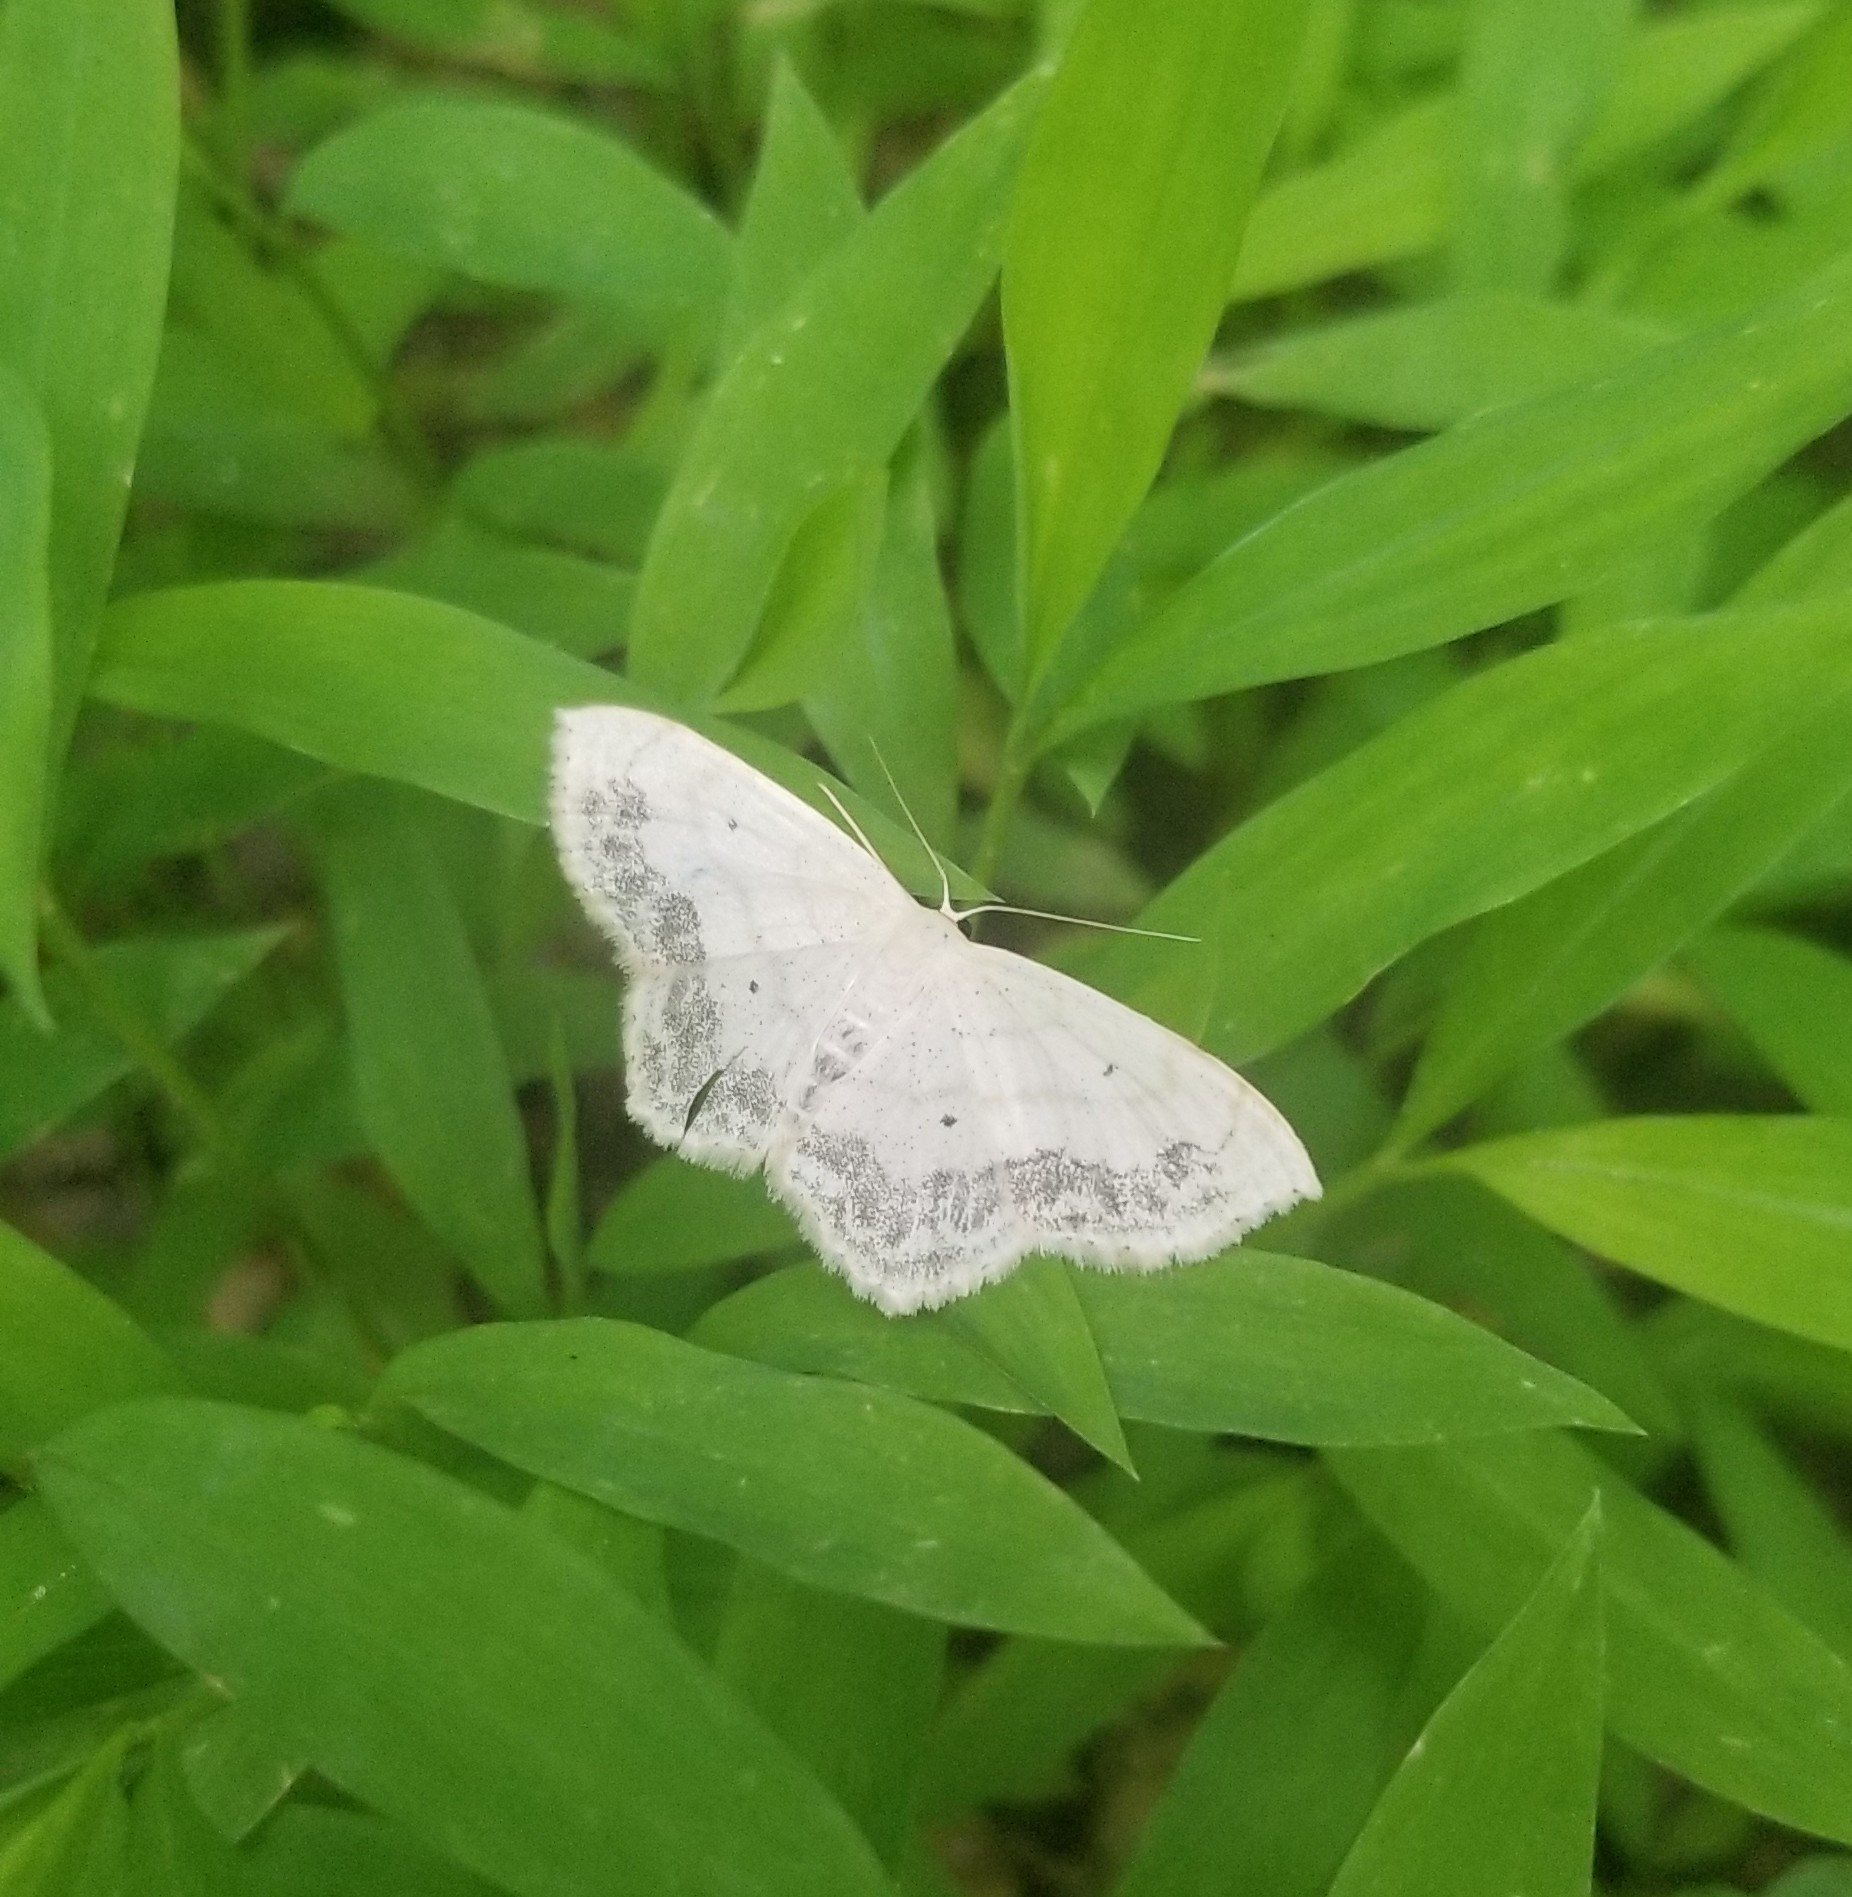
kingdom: Animalia
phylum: Arthropoda
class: Insecta
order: Lepidoptera
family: Geometridae
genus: Scopula
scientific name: Scopula limboundata
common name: Large lace border
